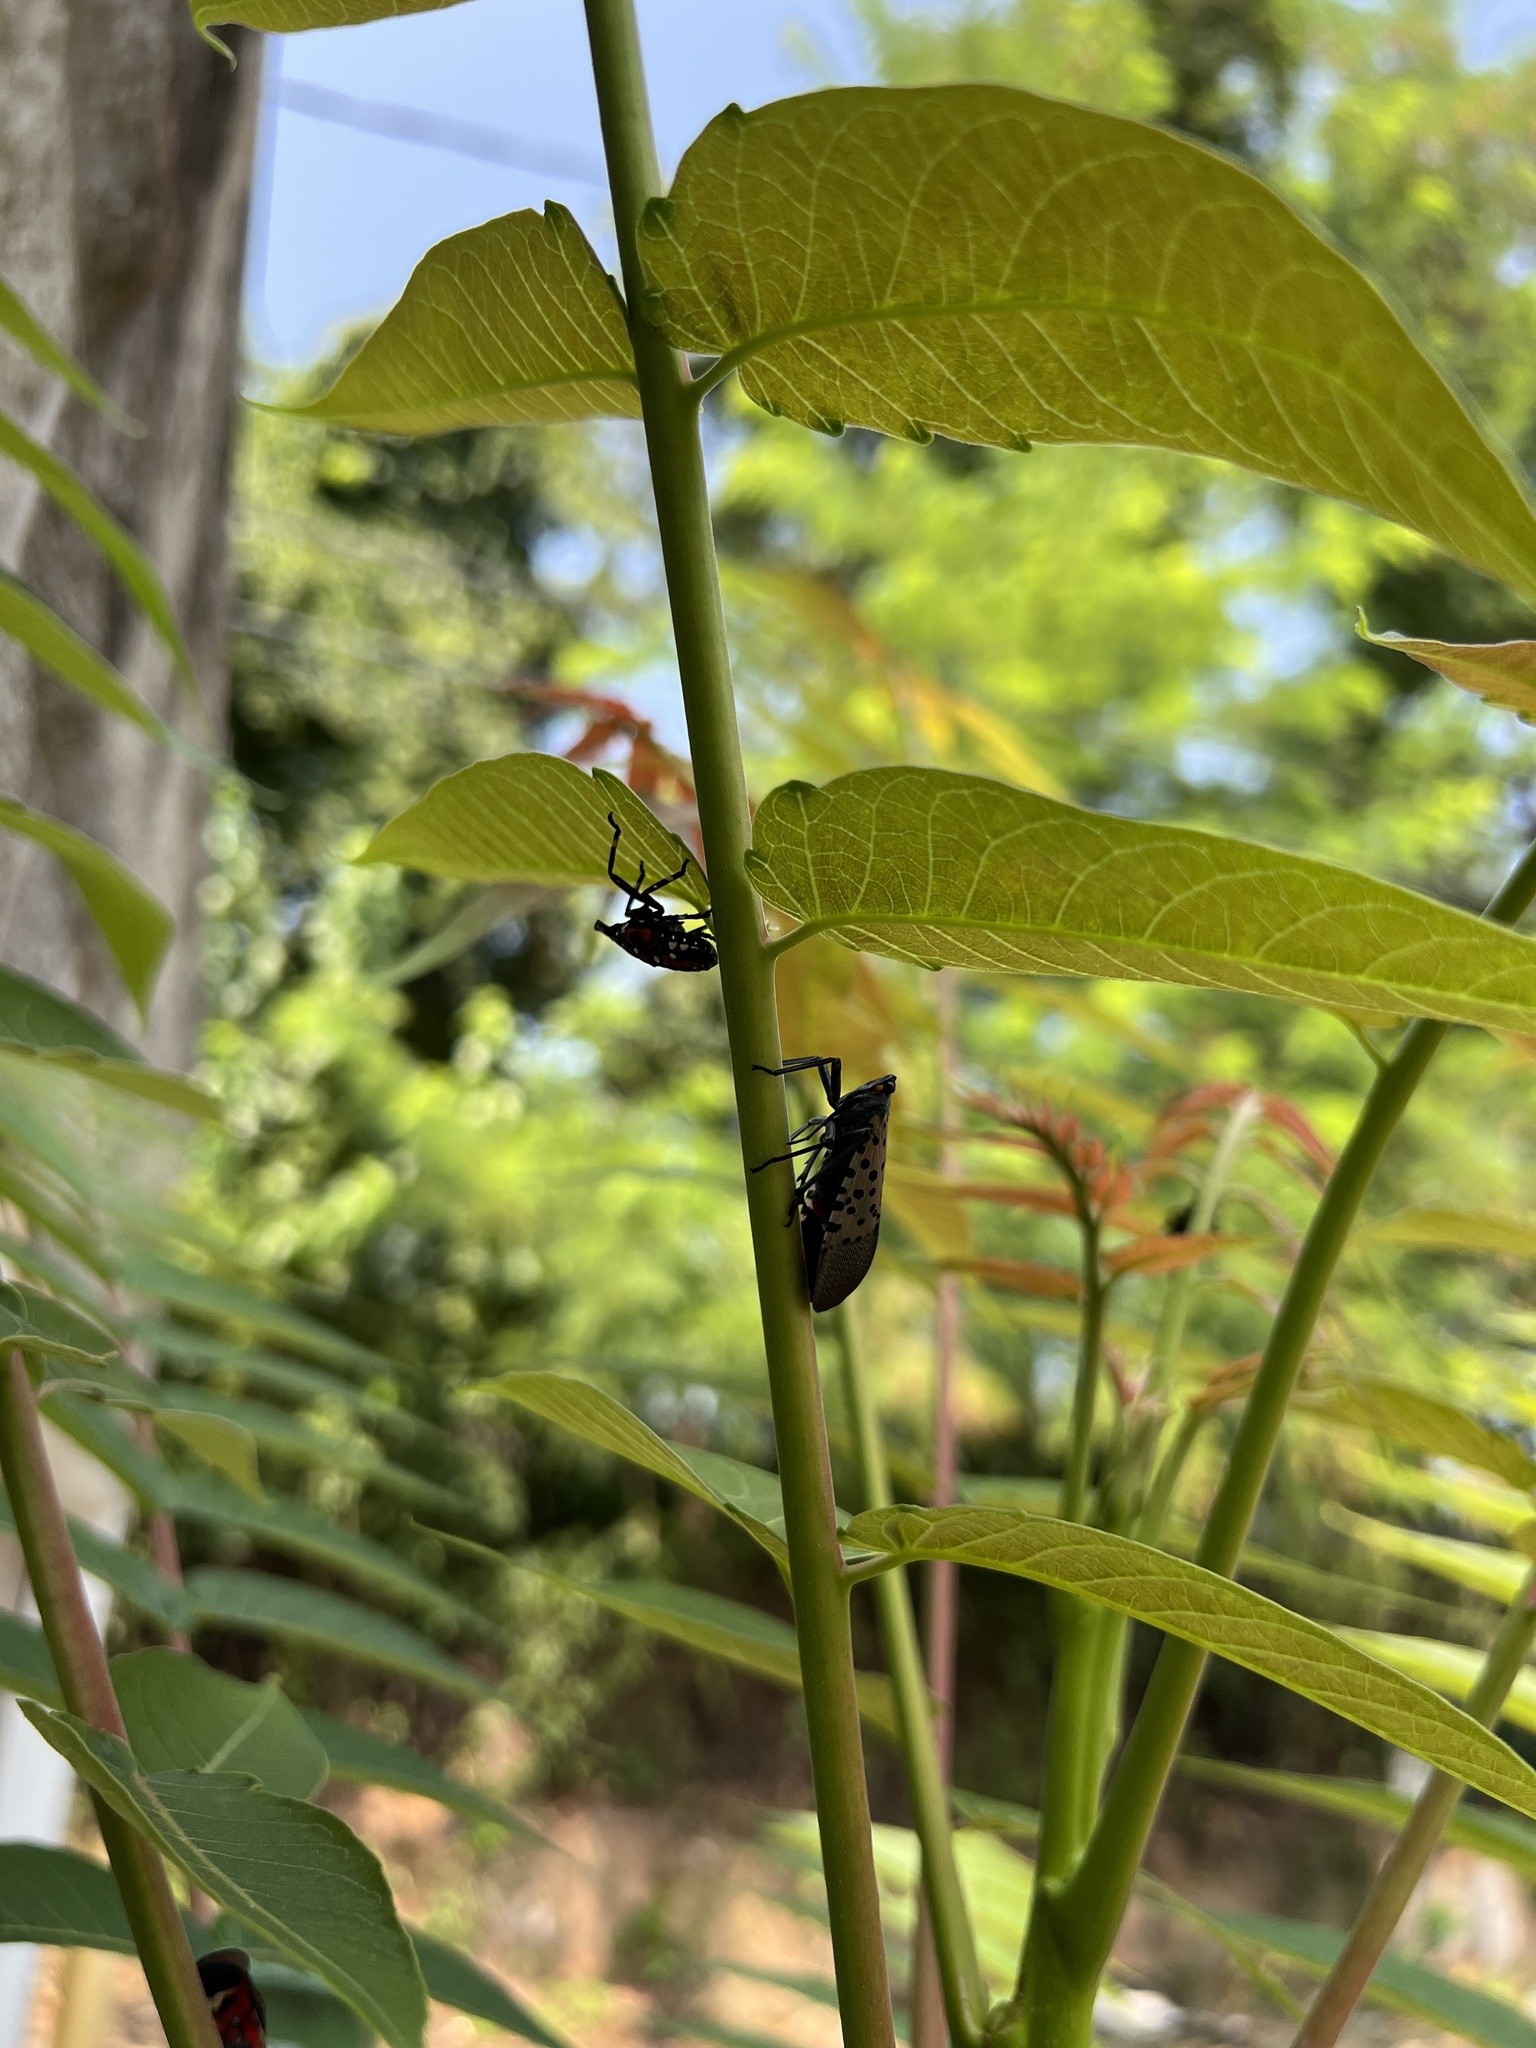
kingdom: Animalia
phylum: Arthropoda
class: Insecta
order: Hemiptera
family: Fulgoridae
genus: Lycorma
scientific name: Lycorma delicatula
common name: Spotted lanternfly
